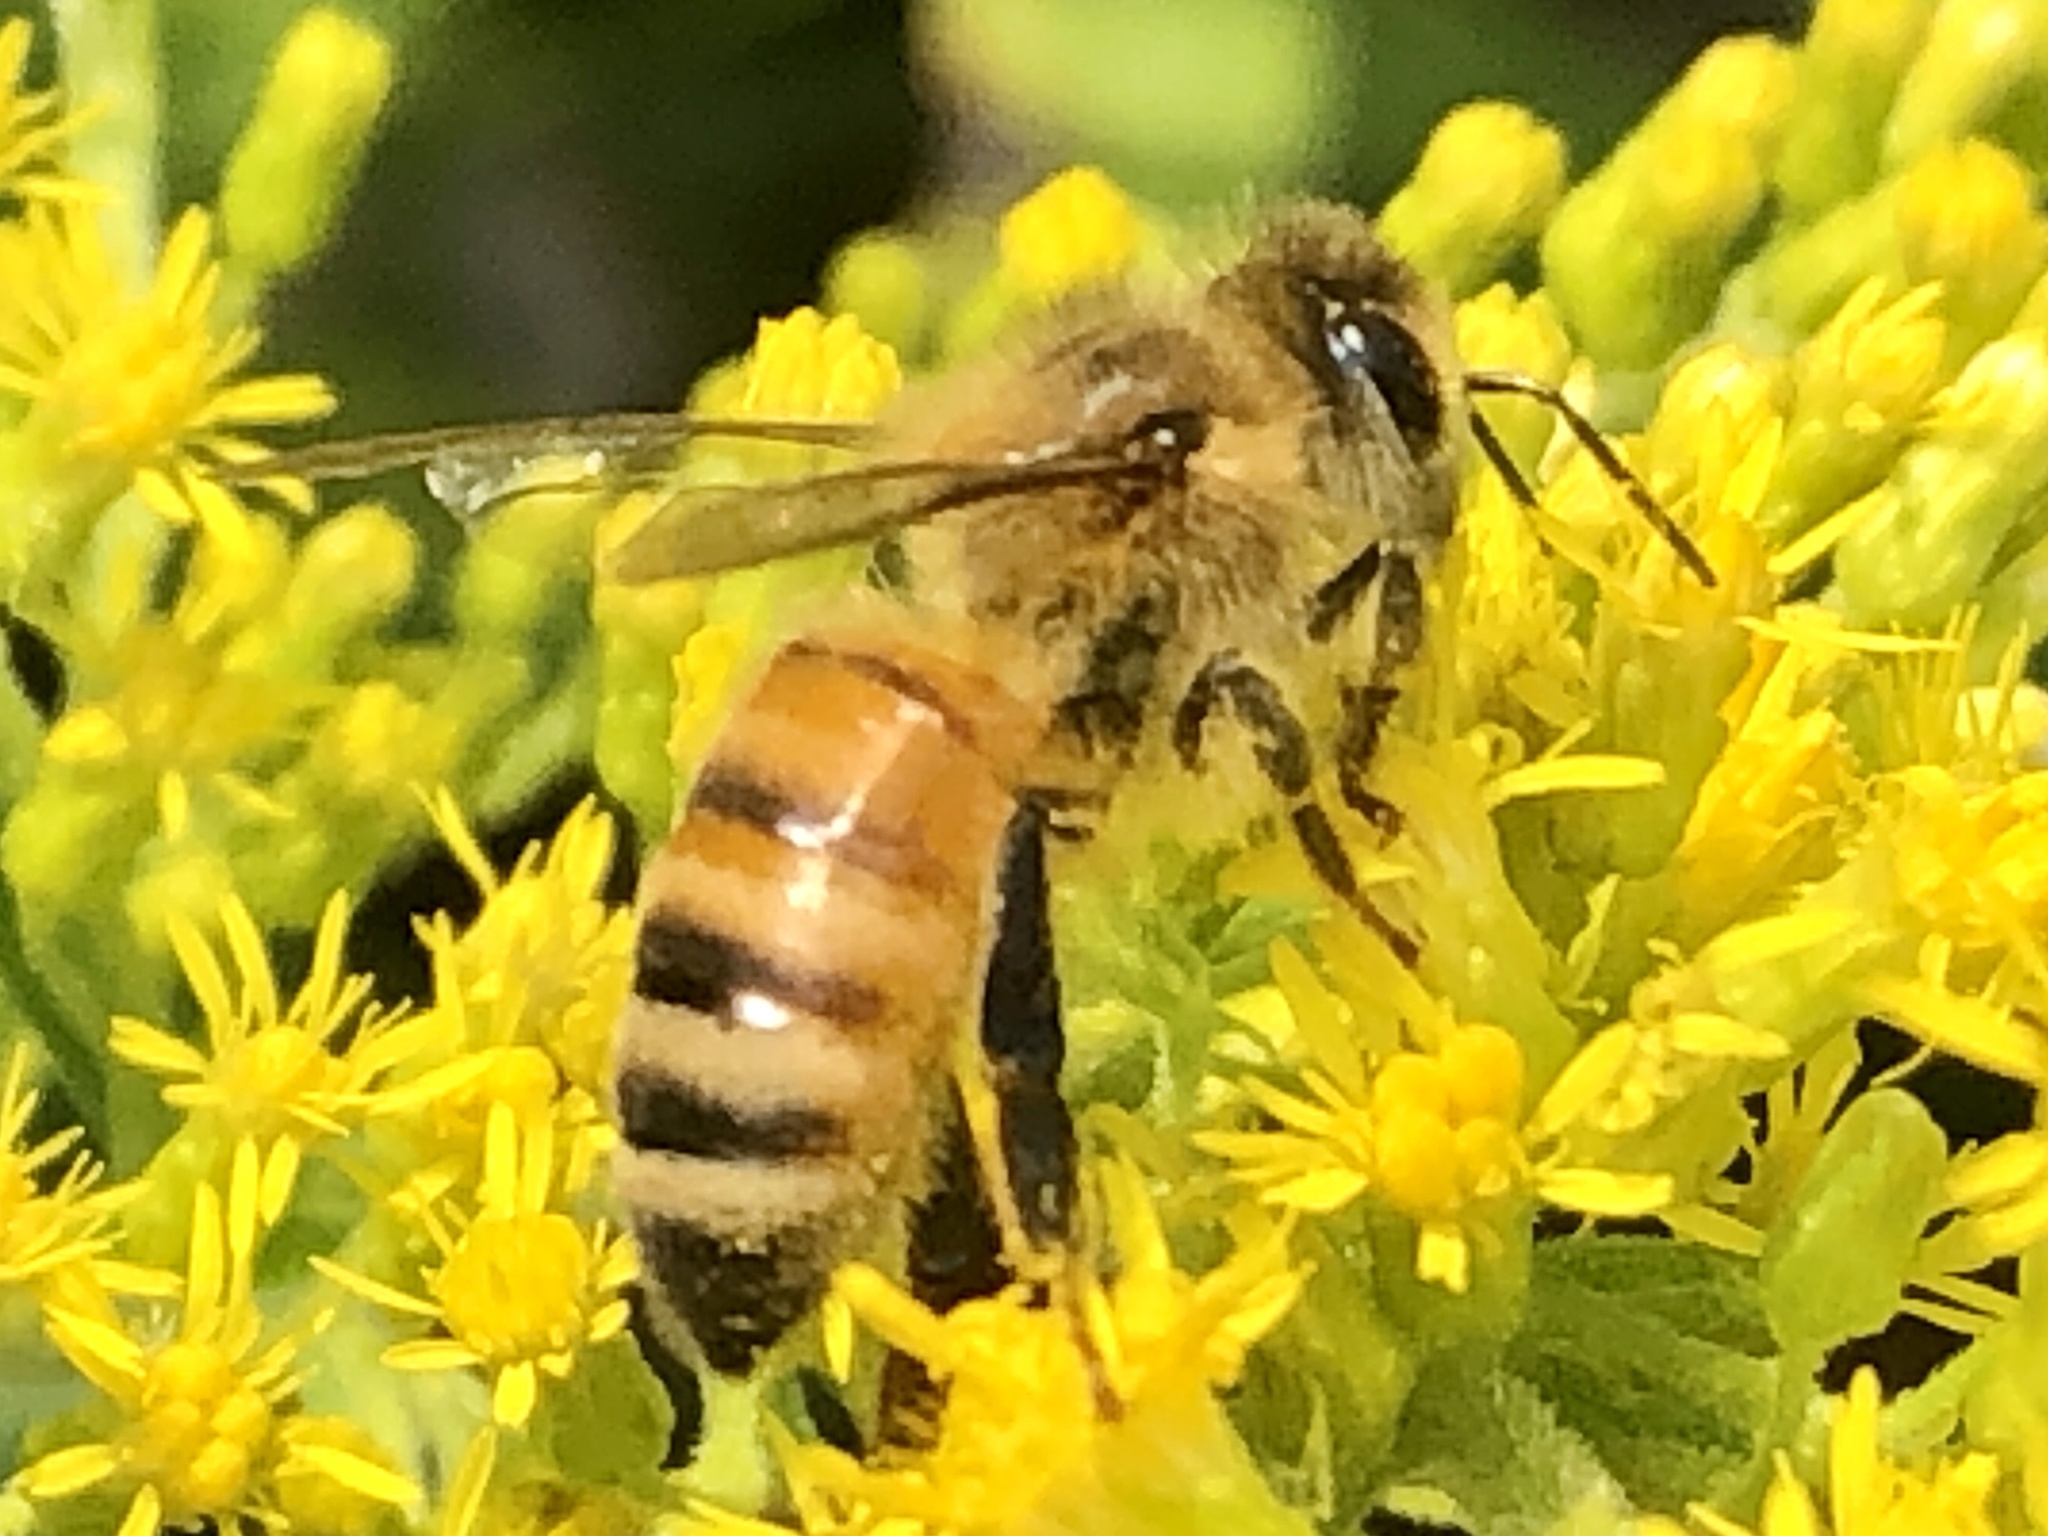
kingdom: Animalia
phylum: Arthropoda
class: Insecta
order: Hymenoptera
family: Apidae
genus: Apis
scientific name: Apis mellifera
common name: Honey bee
